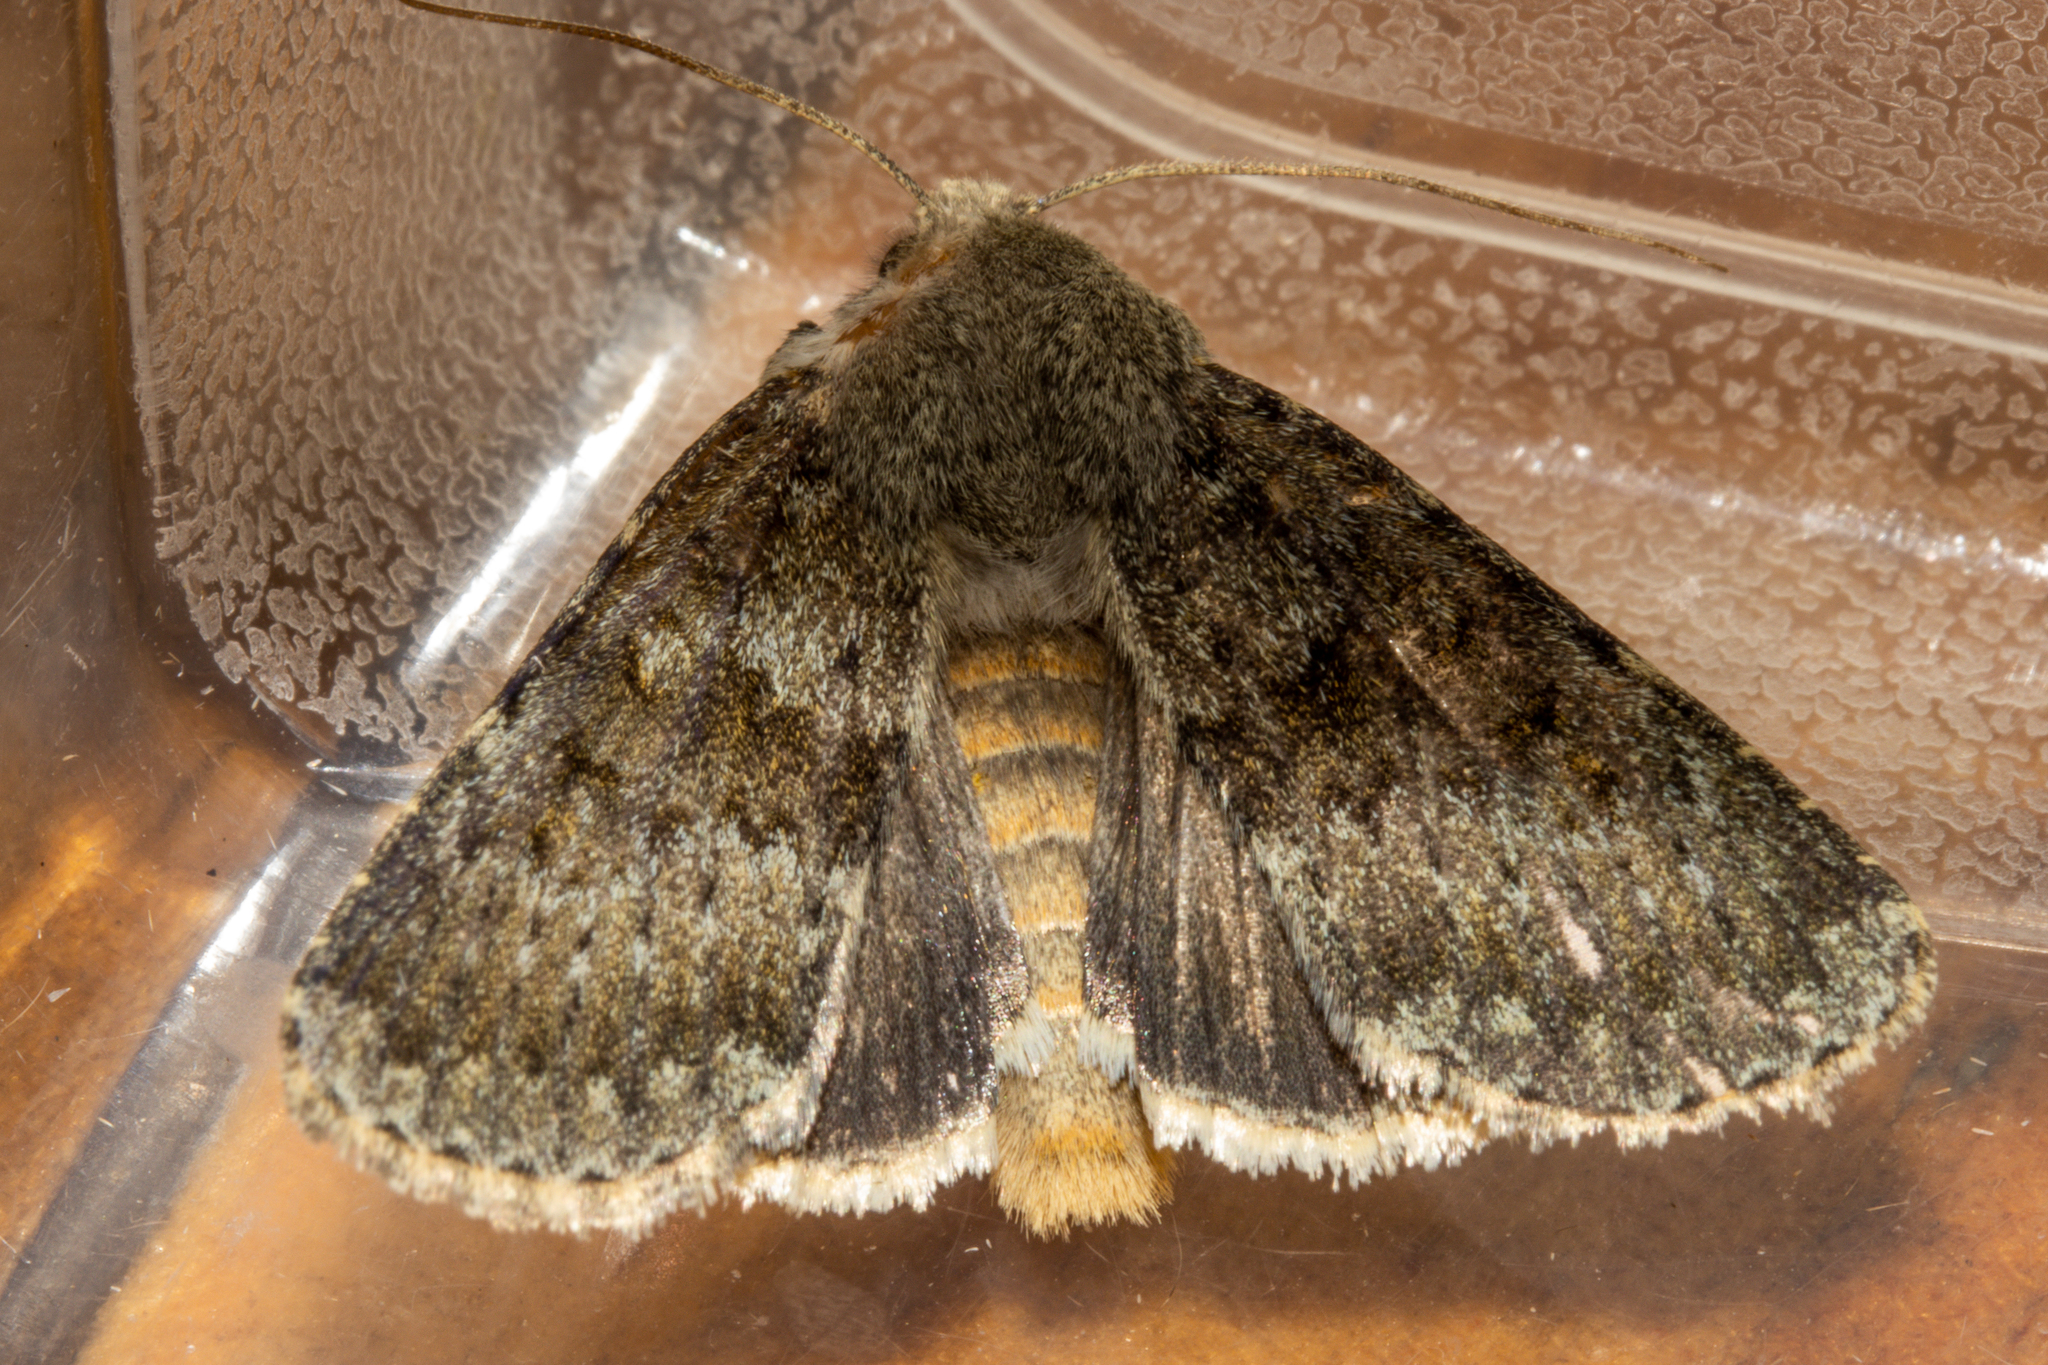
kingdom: Animalia
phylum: Arthropoda
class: Insecta
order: Lepidoptera
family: Noctuidae
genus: Ichneutica
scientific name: Ichneutica moderata
